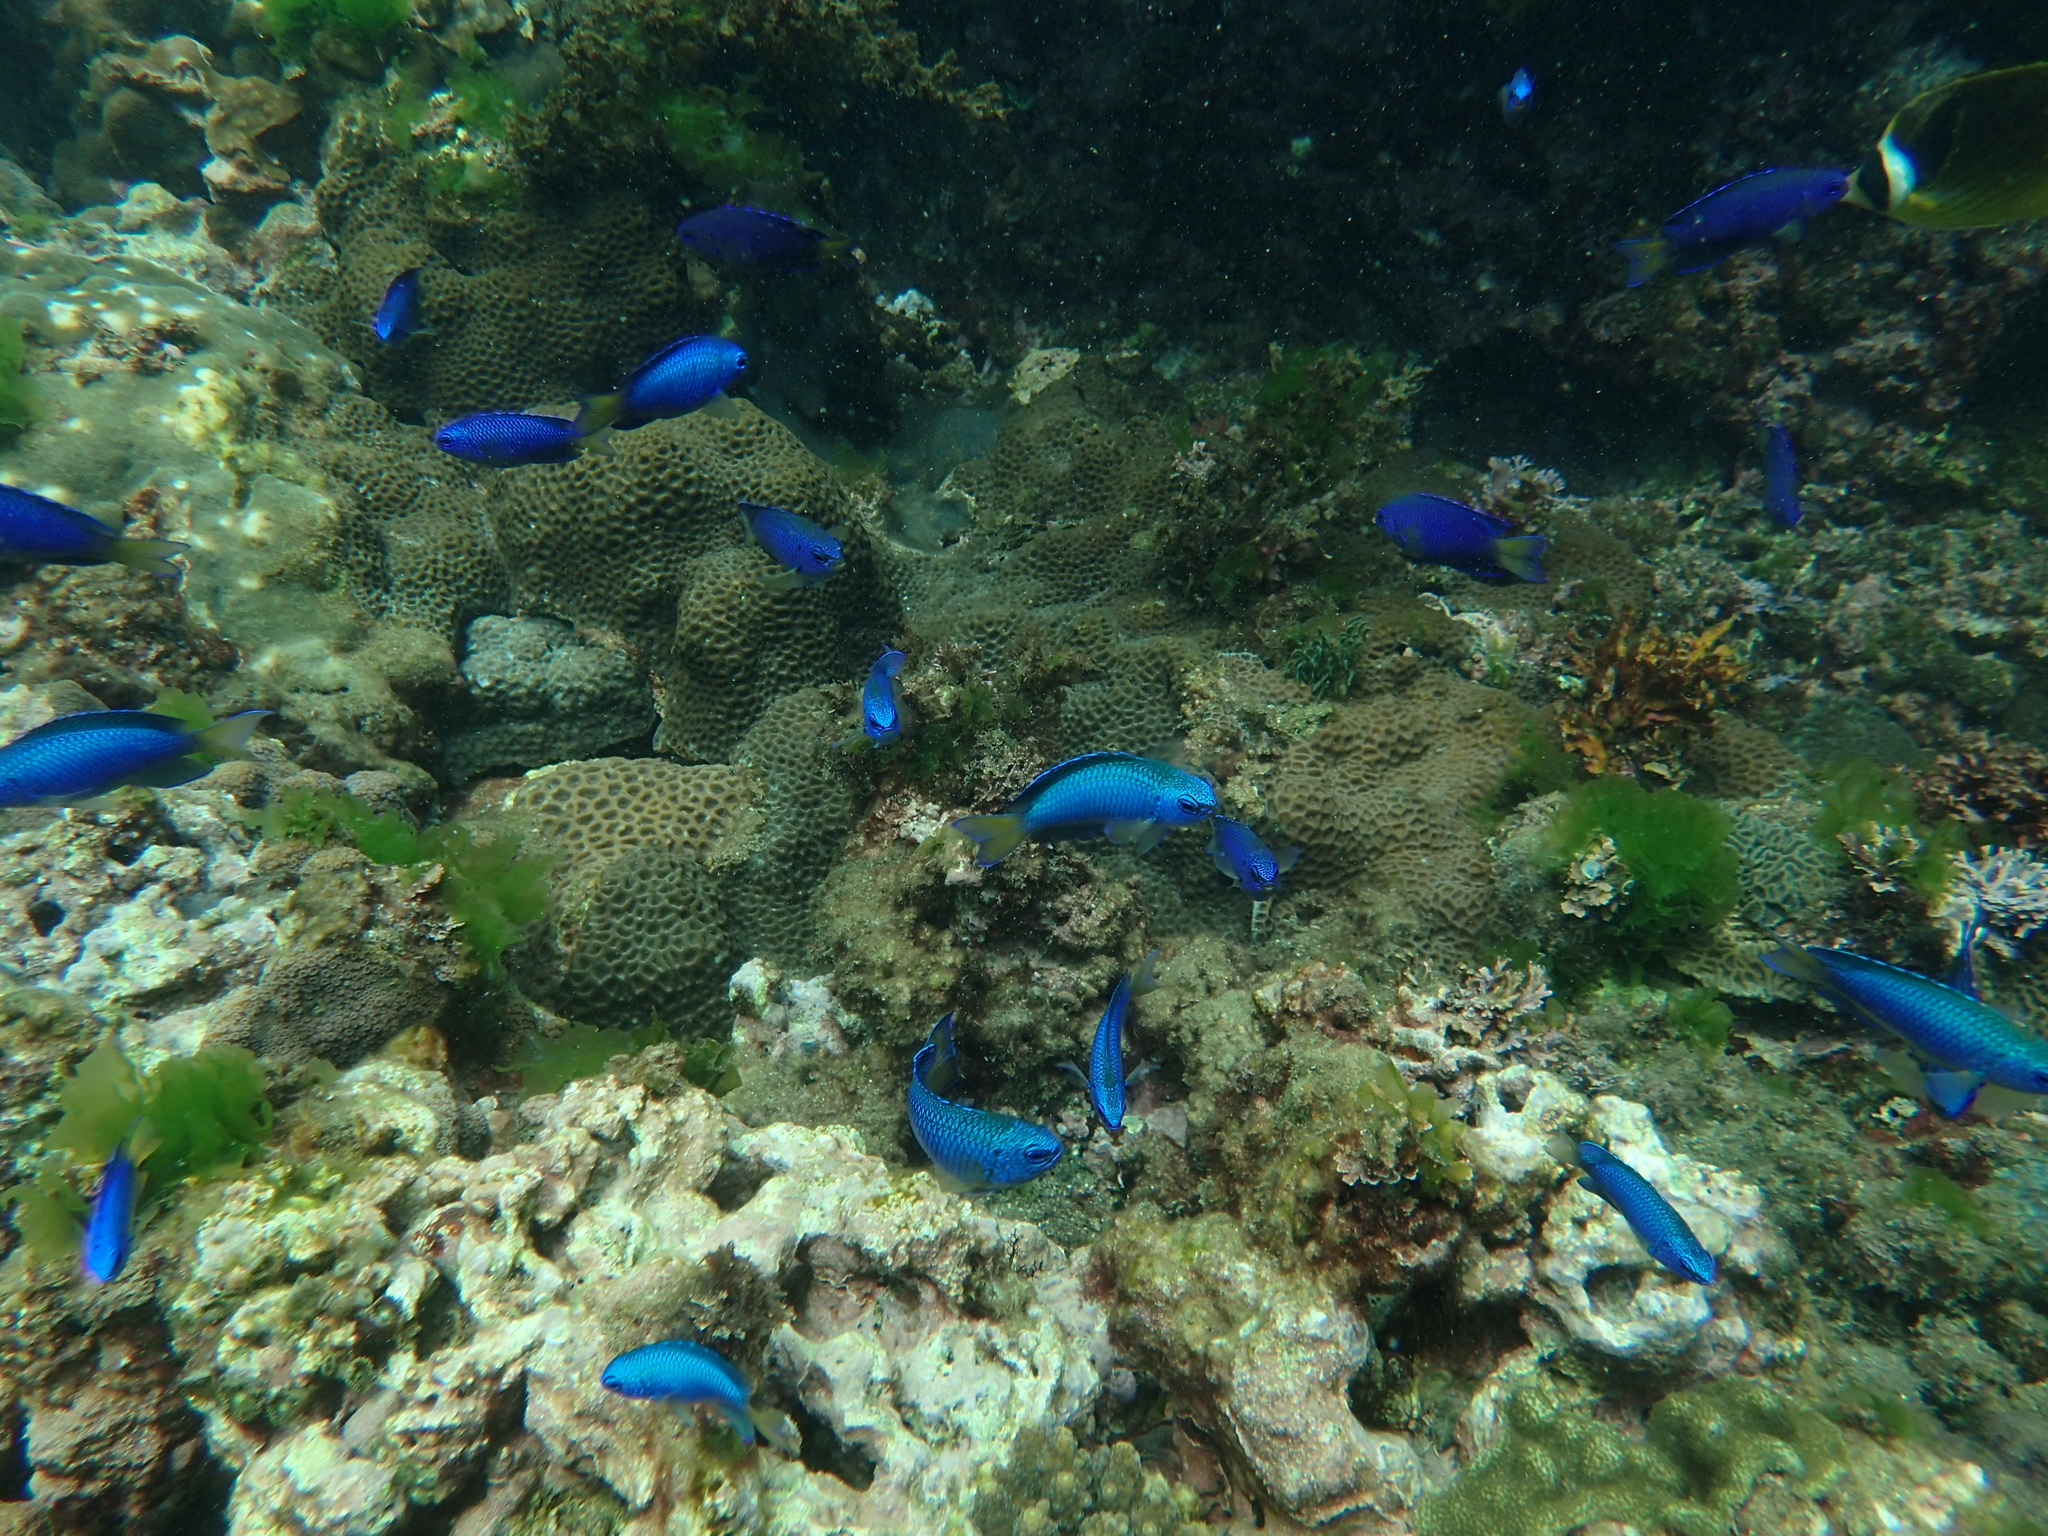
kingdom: Animalia
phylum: Chordata
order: Perciformes
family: Pomacentridae
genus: Pomacentrus
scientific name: Pomacentrus coelestis
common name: Neon damsel
